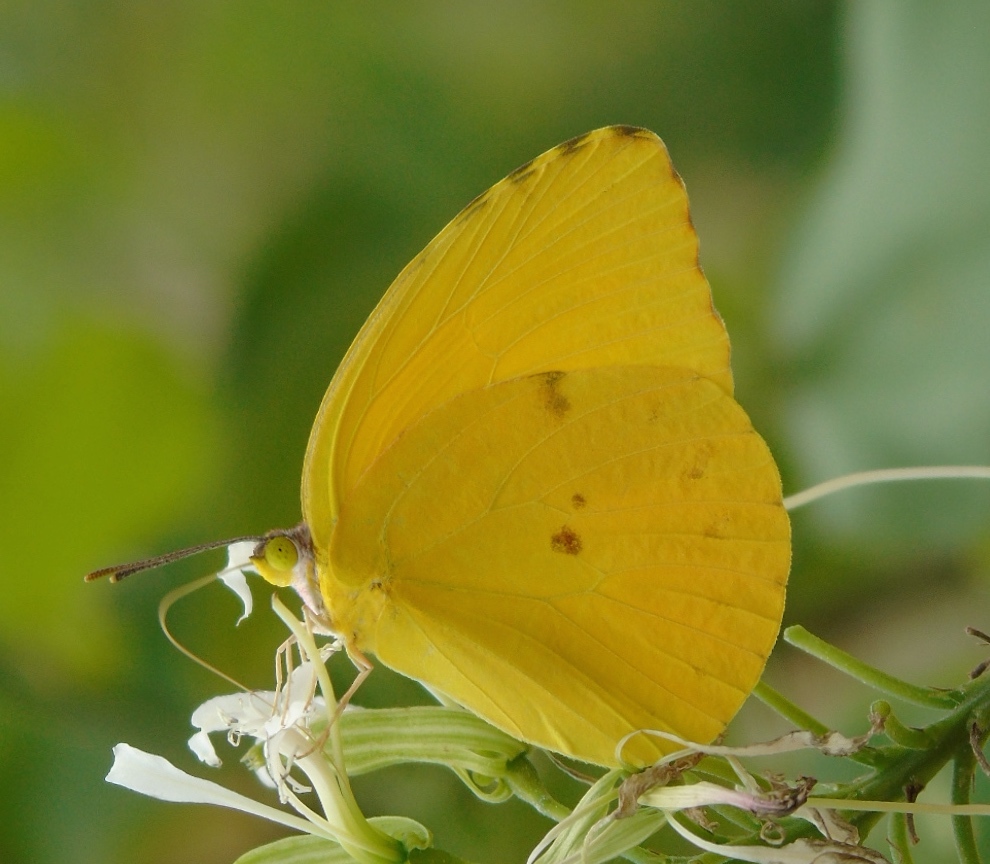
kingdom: Animalia
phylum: Arthropoda
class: Insecta
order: Lepidoptera
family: Pieridae
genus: Prestonia
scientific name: Prestonia clarki
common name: West-mexican sulphur
